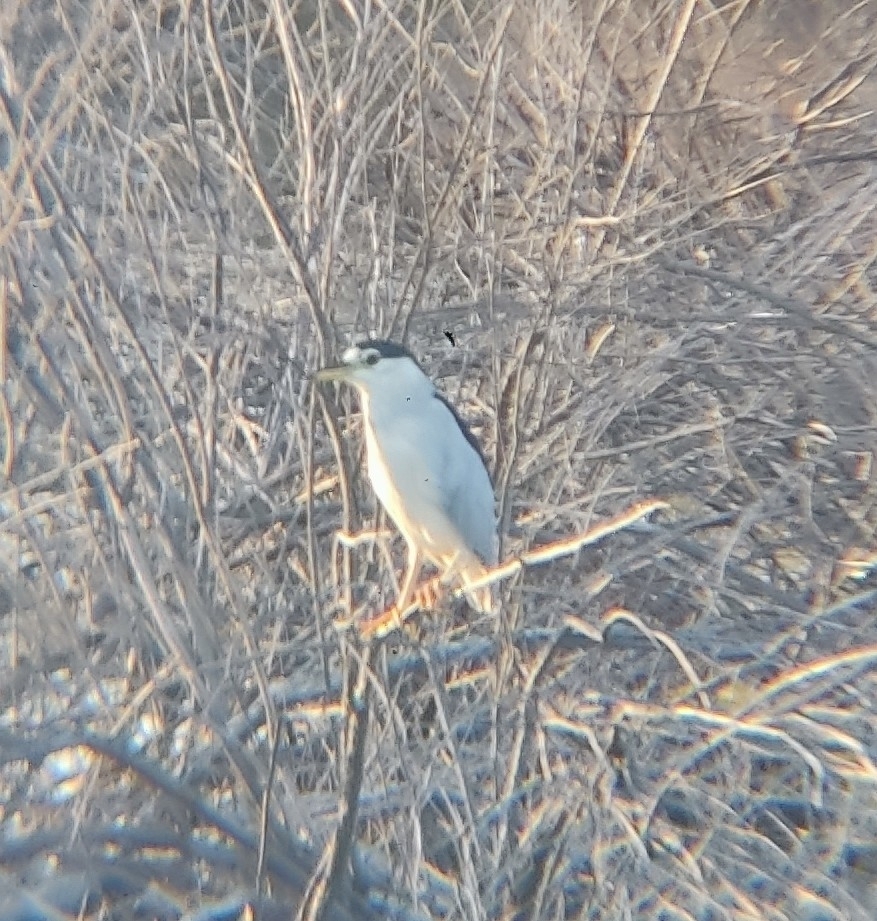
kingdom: Animalia
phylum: Chordata
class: Aves
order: Pelecaniformes
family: Ardeidae
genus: Nycticorax
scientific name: Nycticorax nycticorax
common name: Black-crowned night heron
